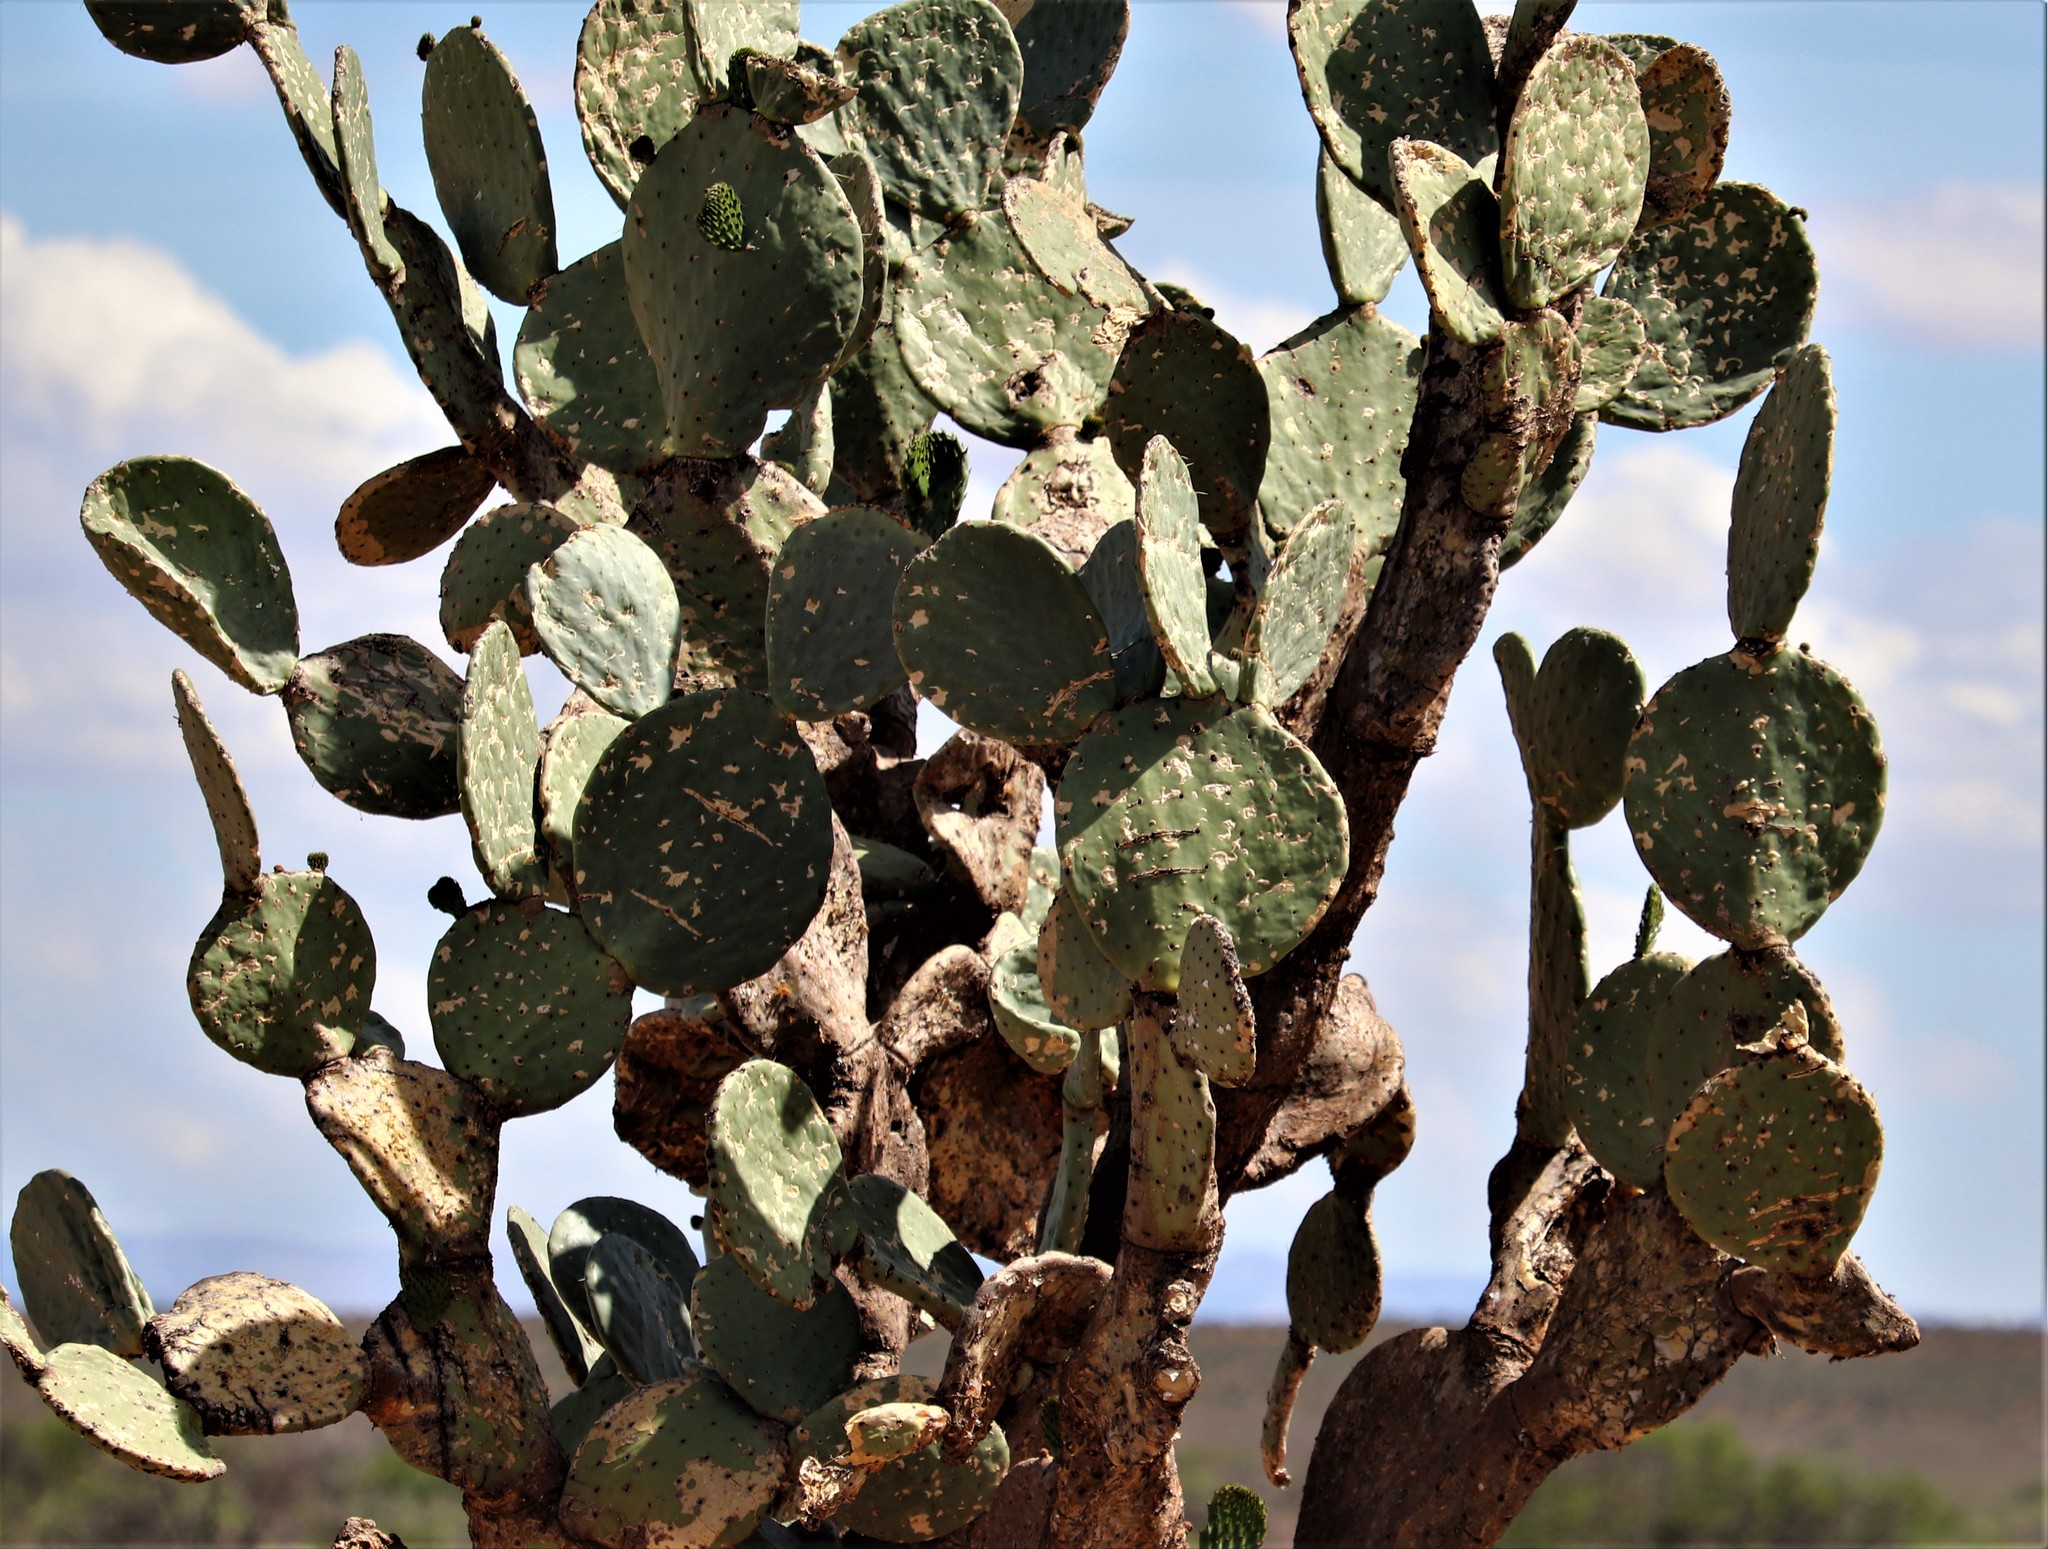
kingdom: Plantae
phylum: Tracheophyta
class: Magnoliopsida
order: Caryophyllales
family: Cactaceae
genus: Opuntia
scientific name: Opuntia ficus-indica
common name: Barbary fig
